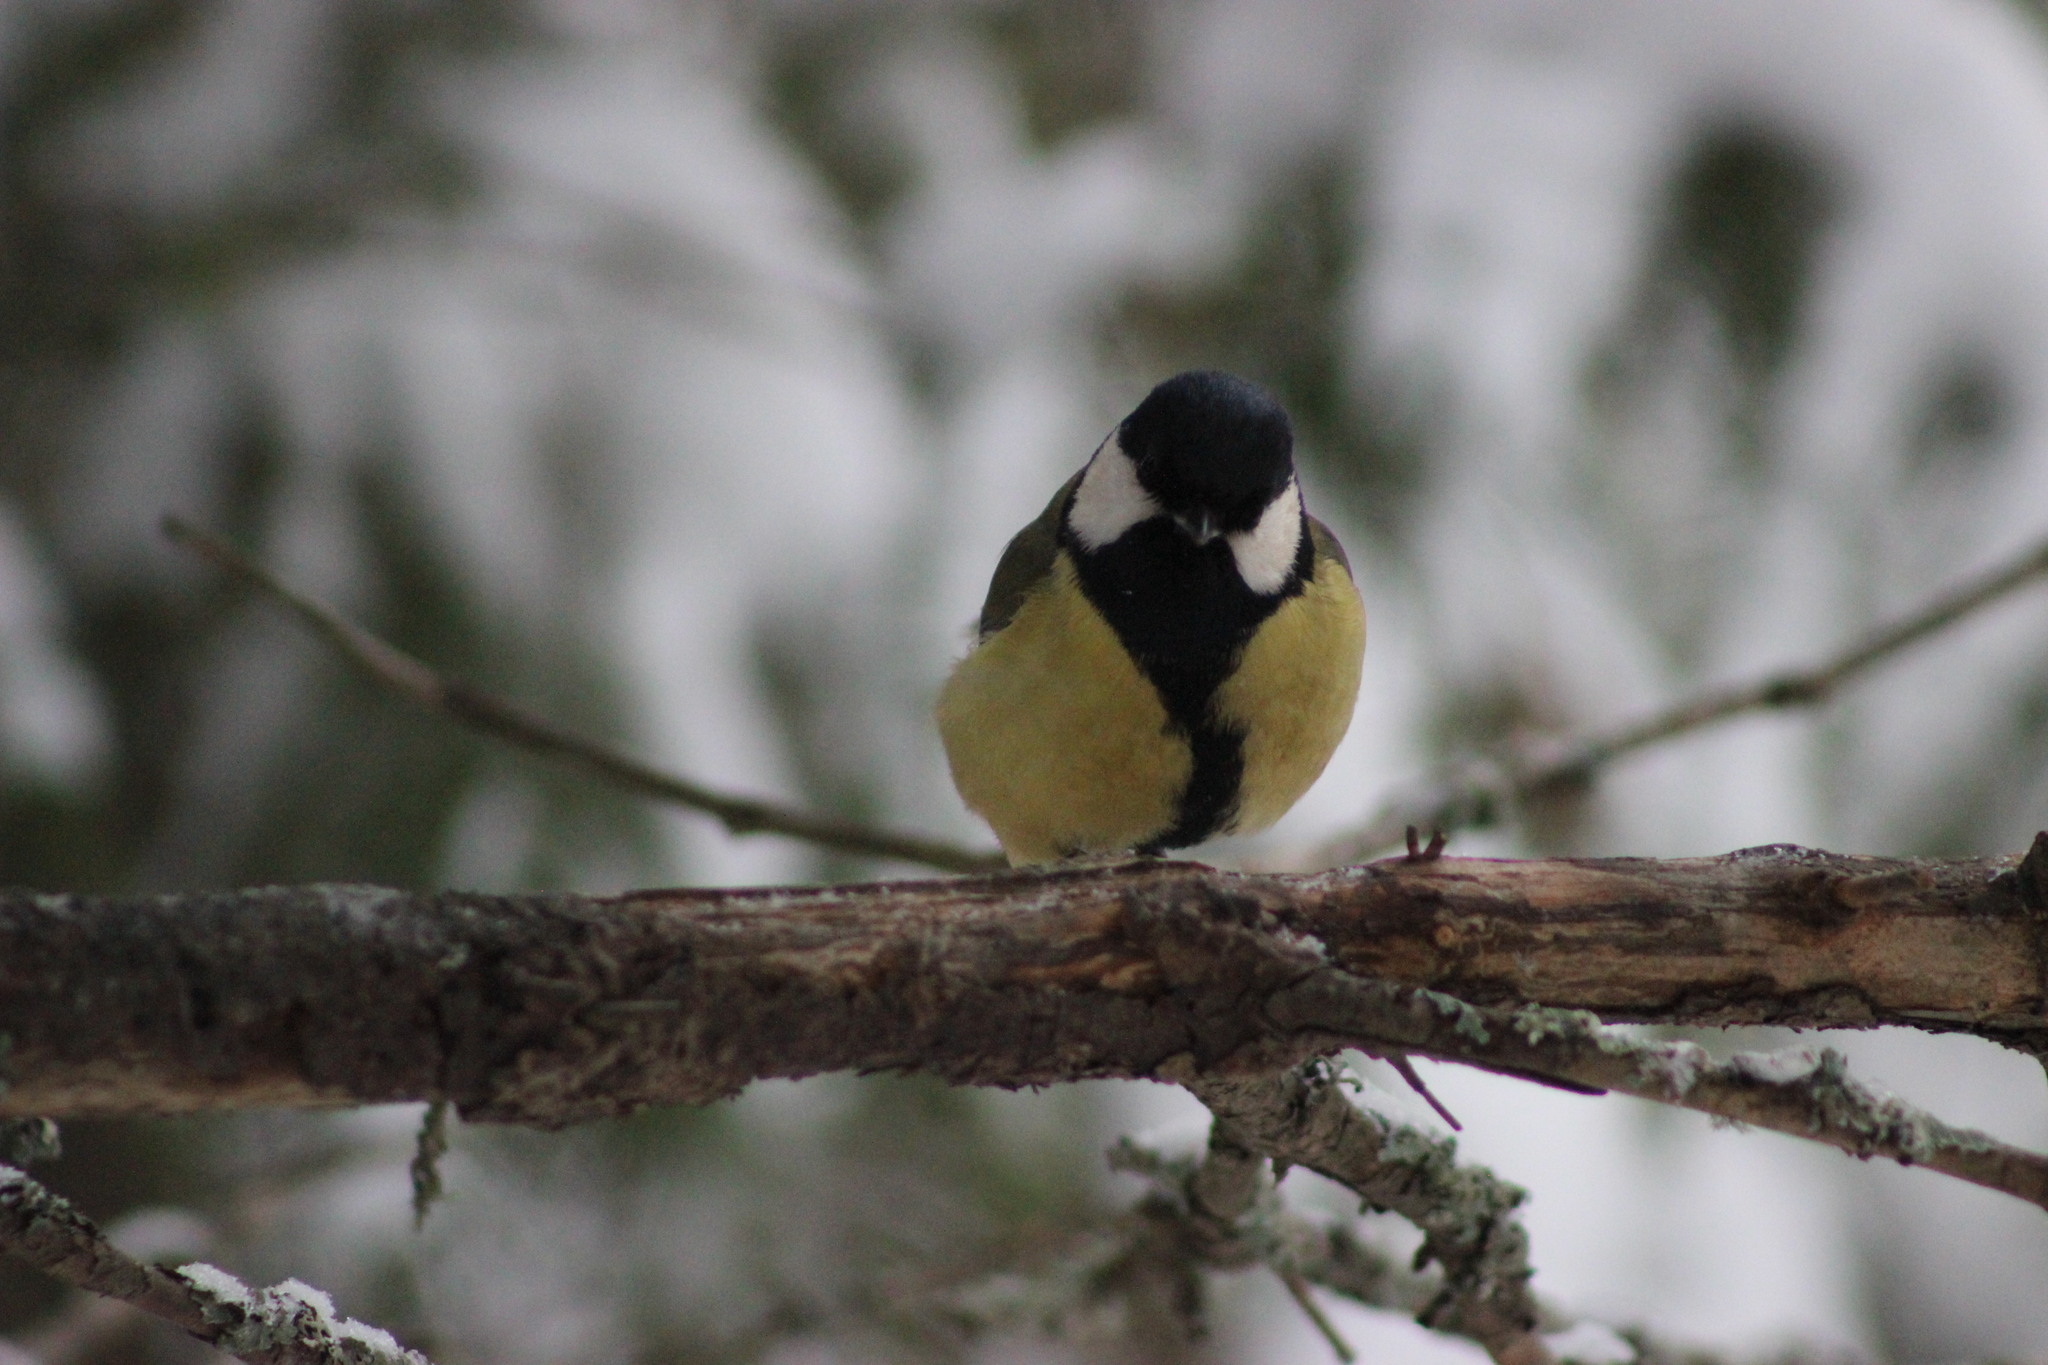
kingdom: Animalia
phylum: Chordata
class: Aves
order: Passeriformes
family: Paridae
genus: Parus
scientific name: Parus major
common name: Great tit
